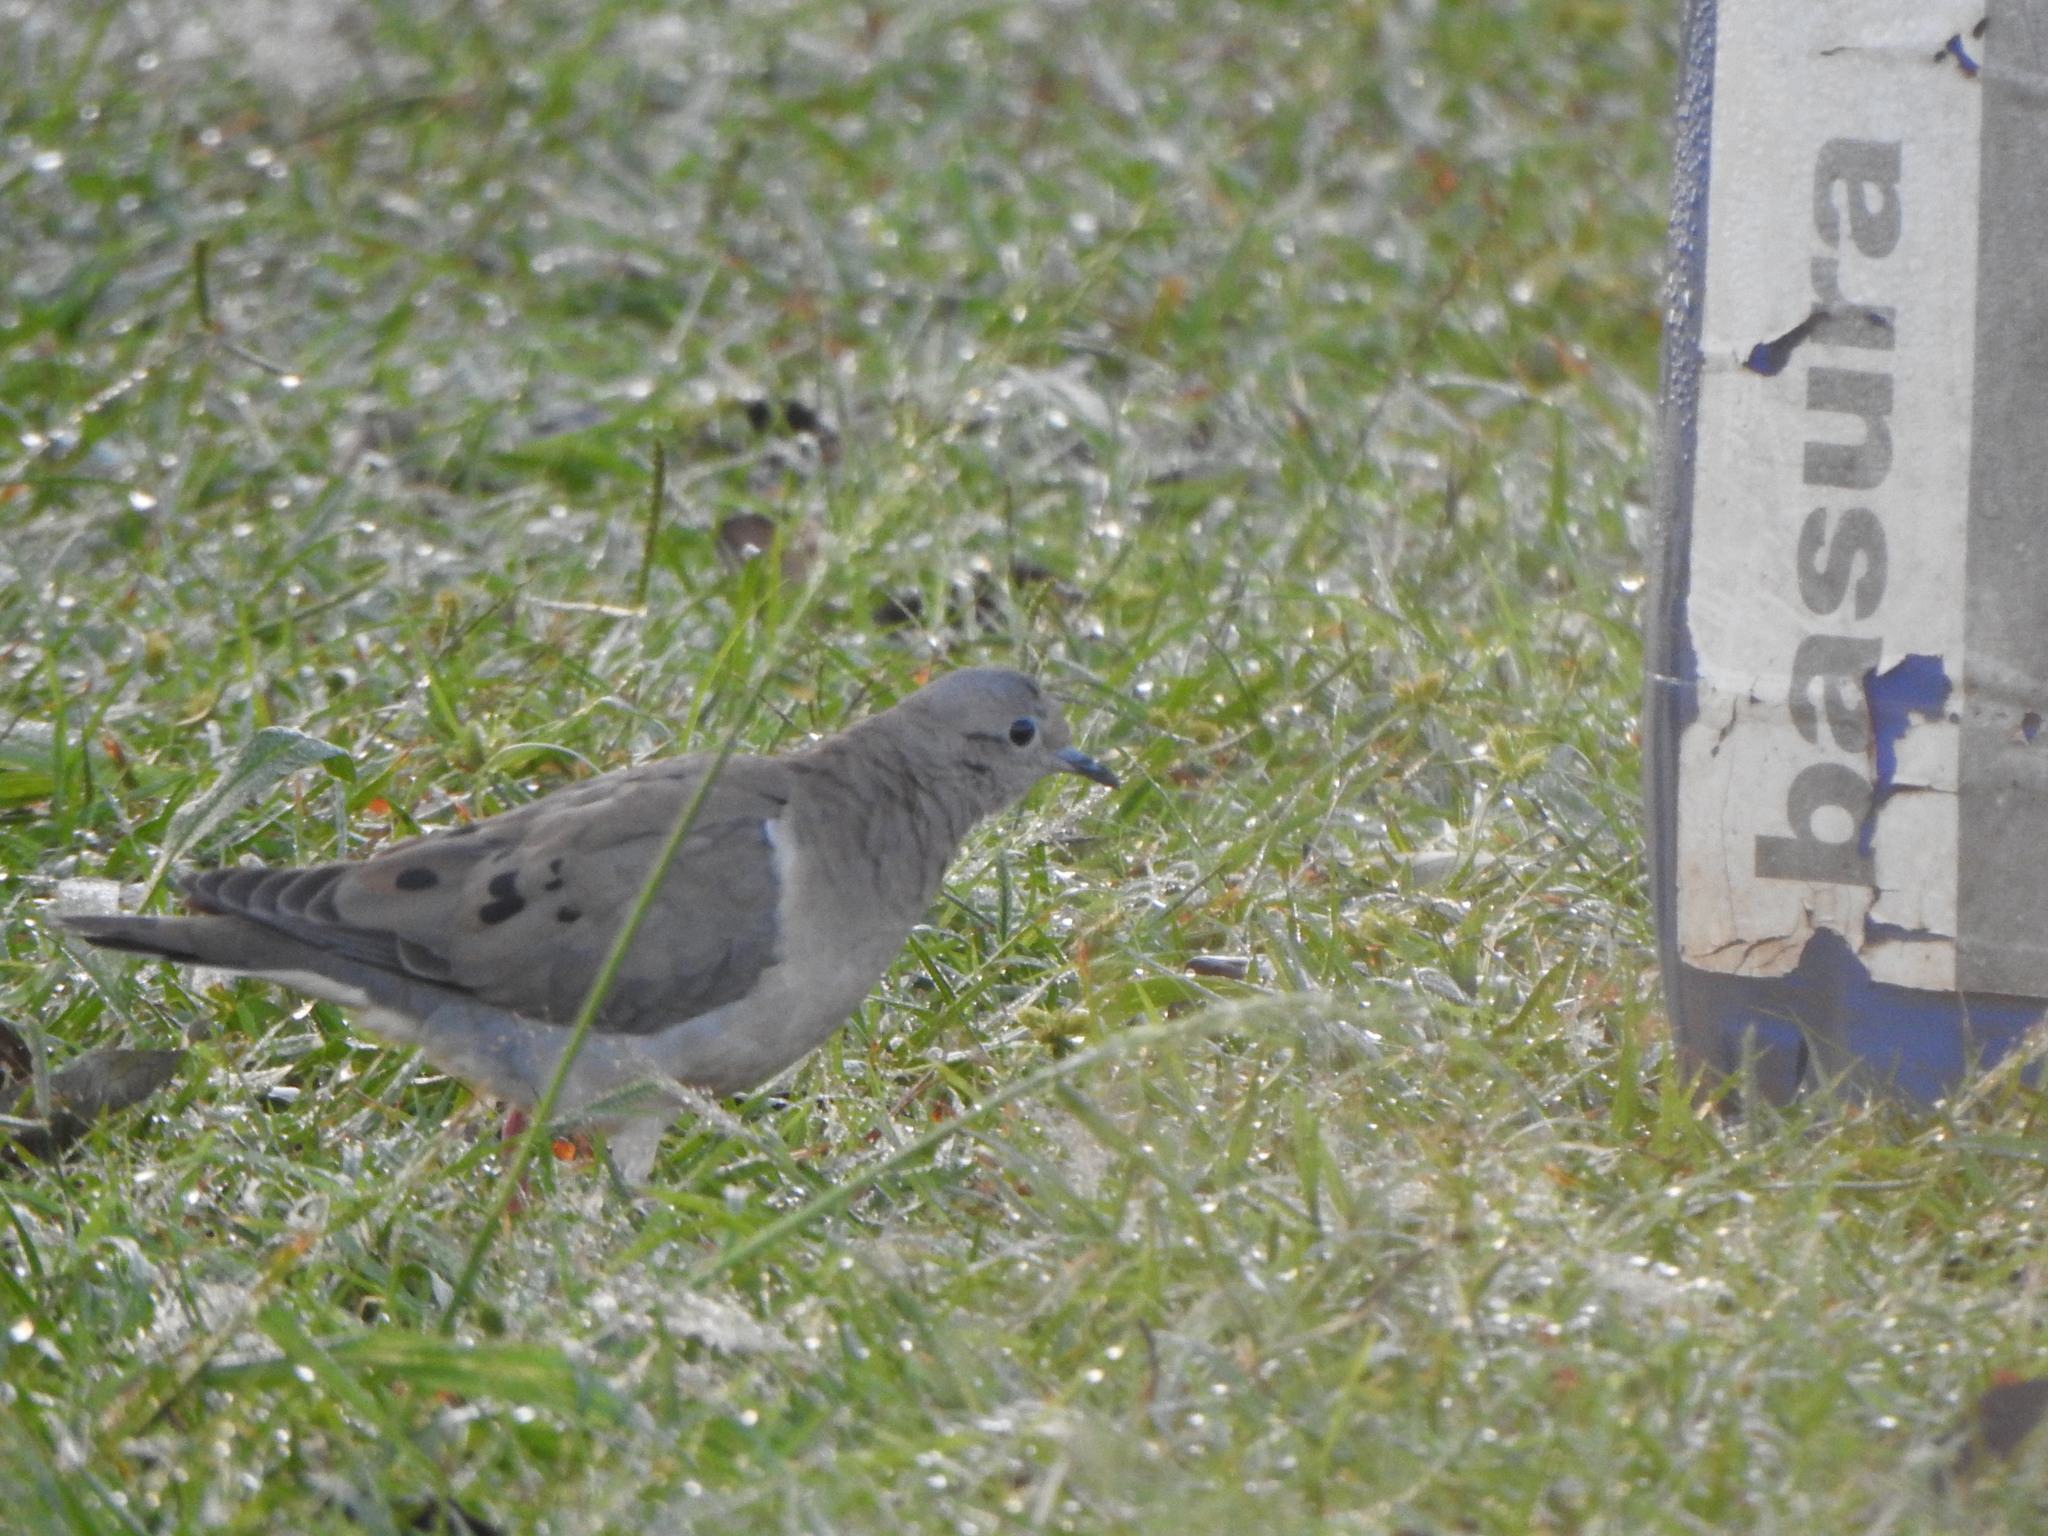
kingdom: Animalia
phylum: Chordata
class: Aves
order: Columbiformes
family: Columbidae
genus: Zenaida
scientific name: Zenaida auriculata
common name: Eared dove
